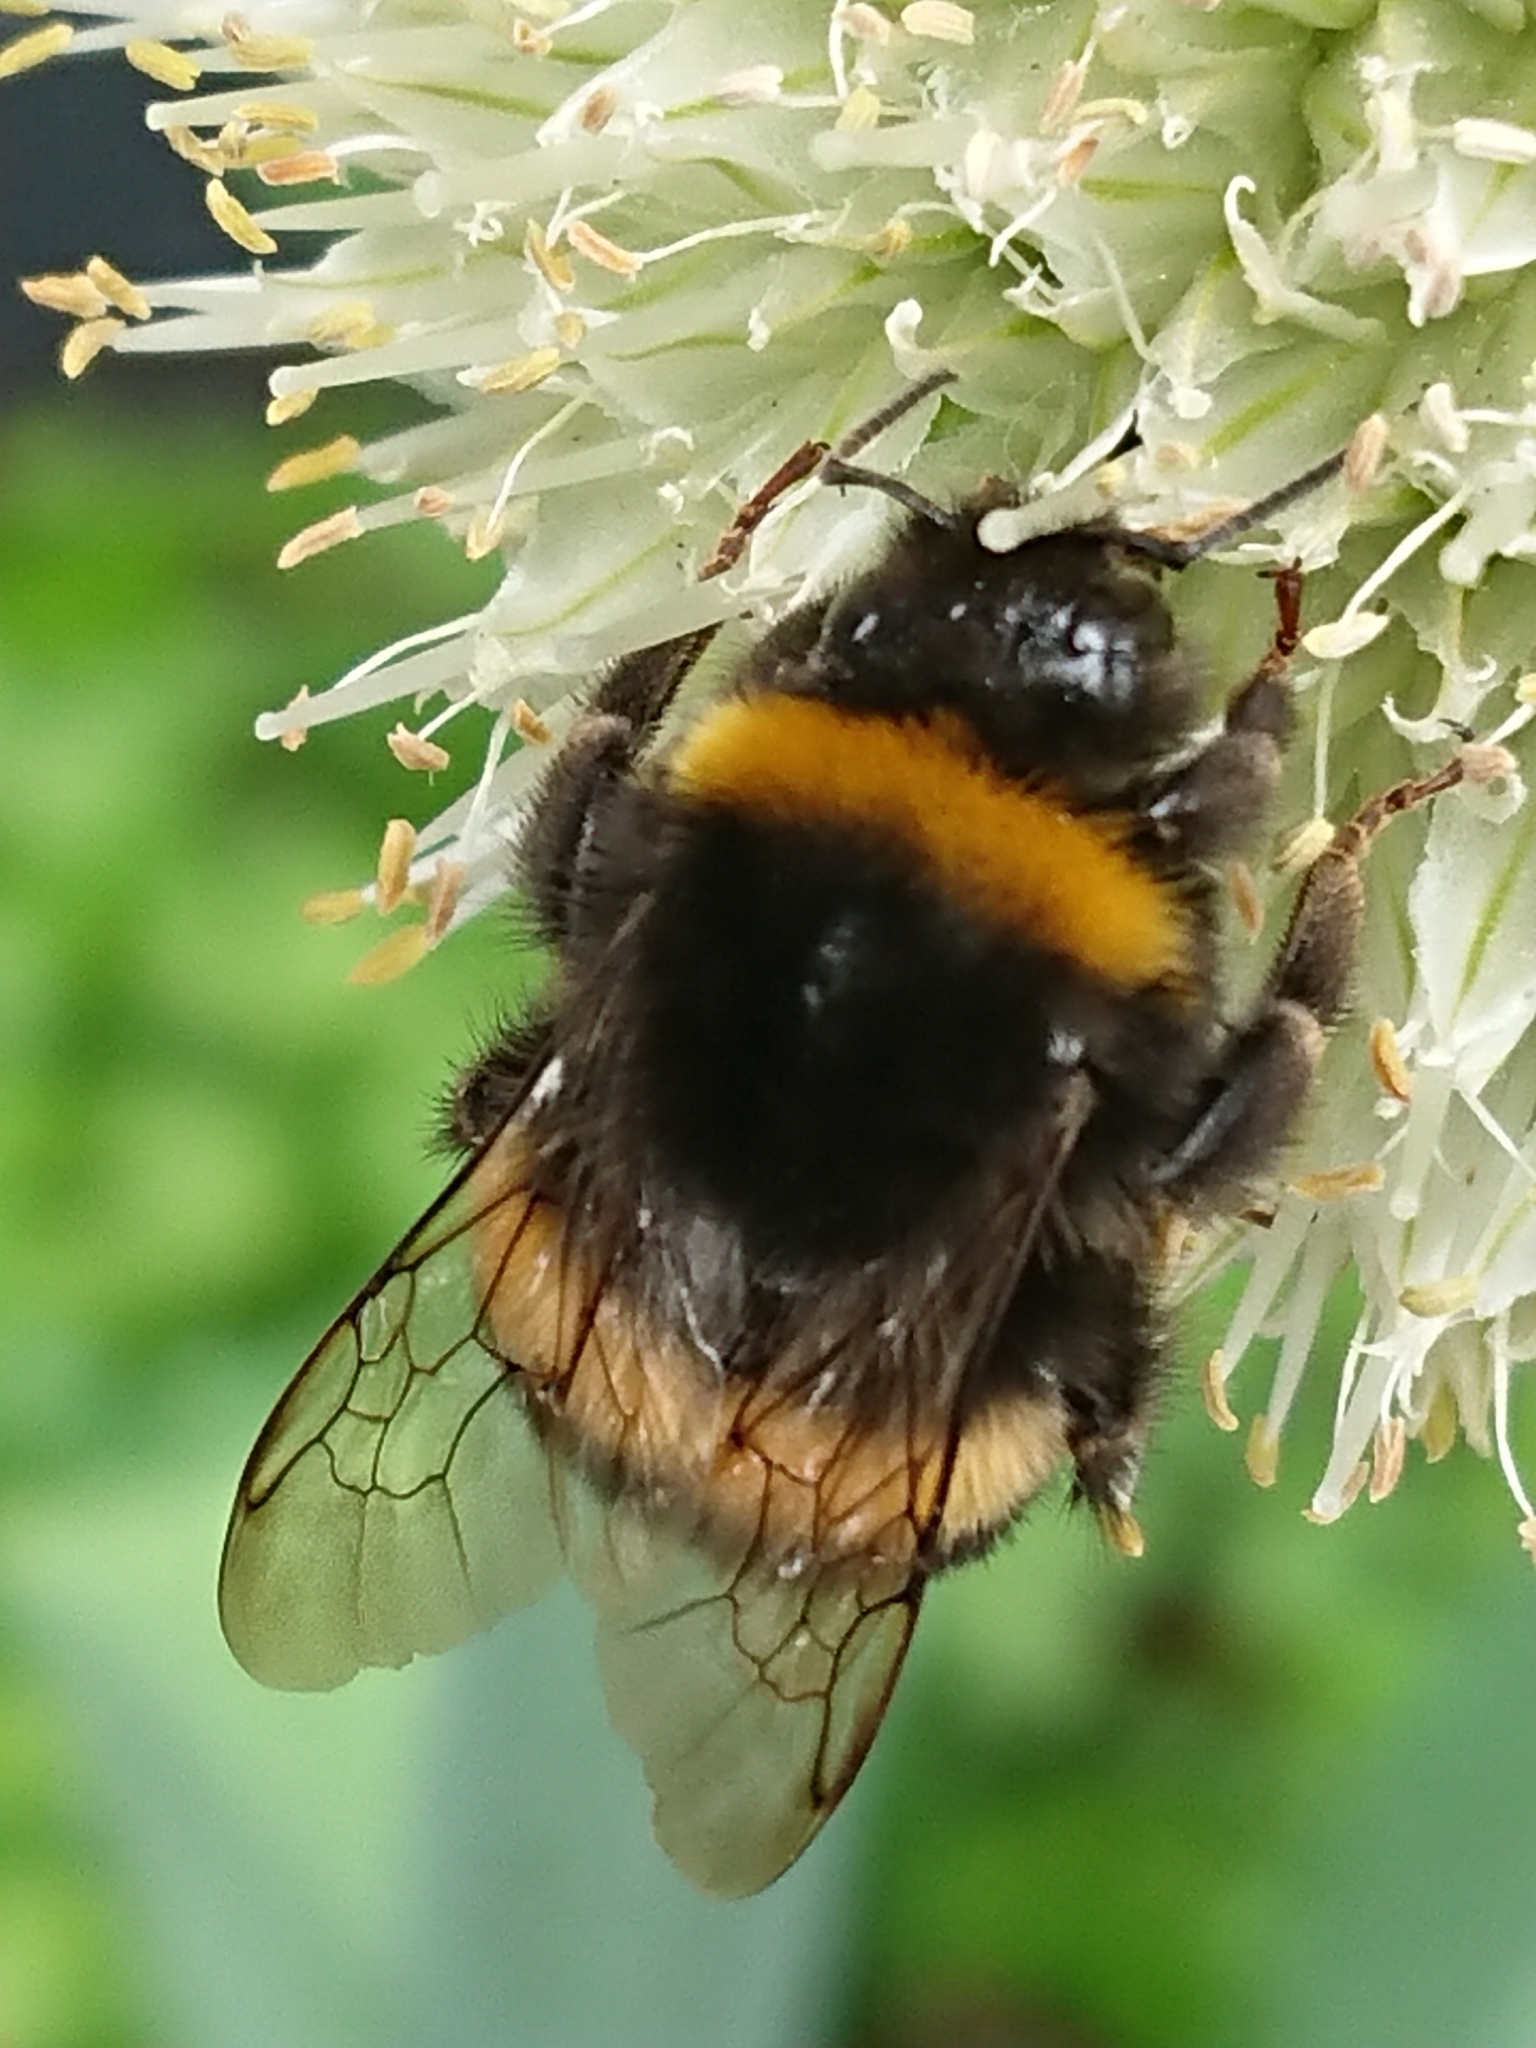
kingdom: Animalia
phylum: Arthropoda
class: Insecta
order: Hymenoptera
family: Apidae
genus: Bombus
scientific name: Bombus terrestris
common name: Buff-tailed bumblebee
